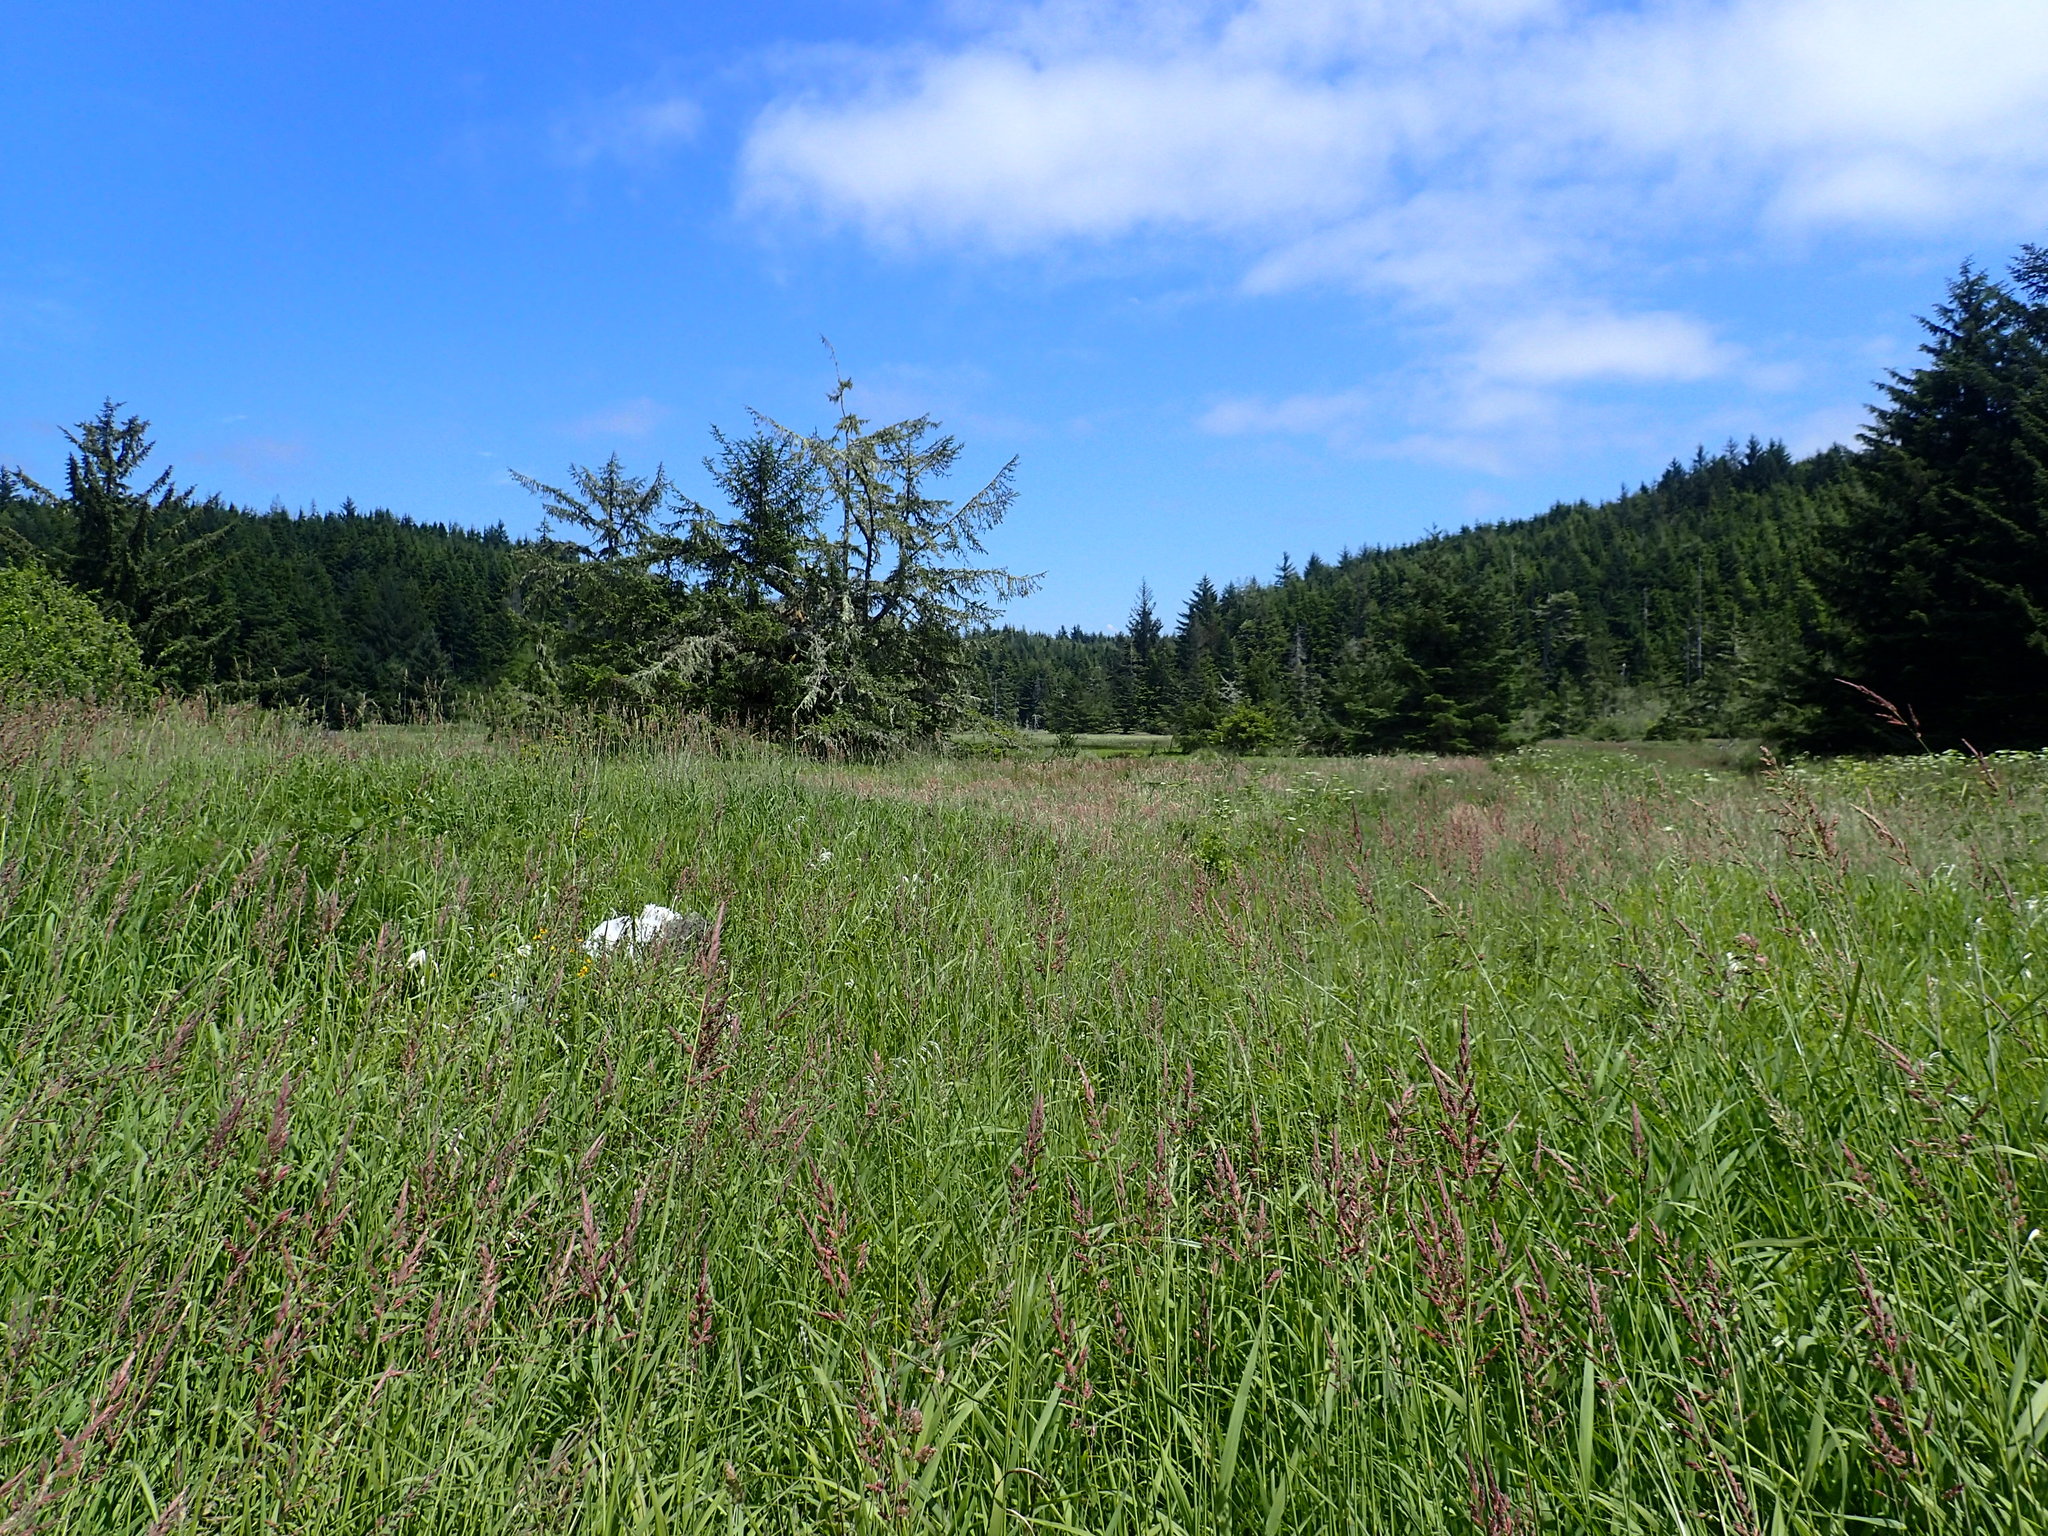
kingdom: Plantae
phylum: Tracheophyta
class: Liliopsida
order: Poales
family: Poaceae
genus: Phalaris
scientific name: Phalaris arundinacea
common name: Reed canary-grass
